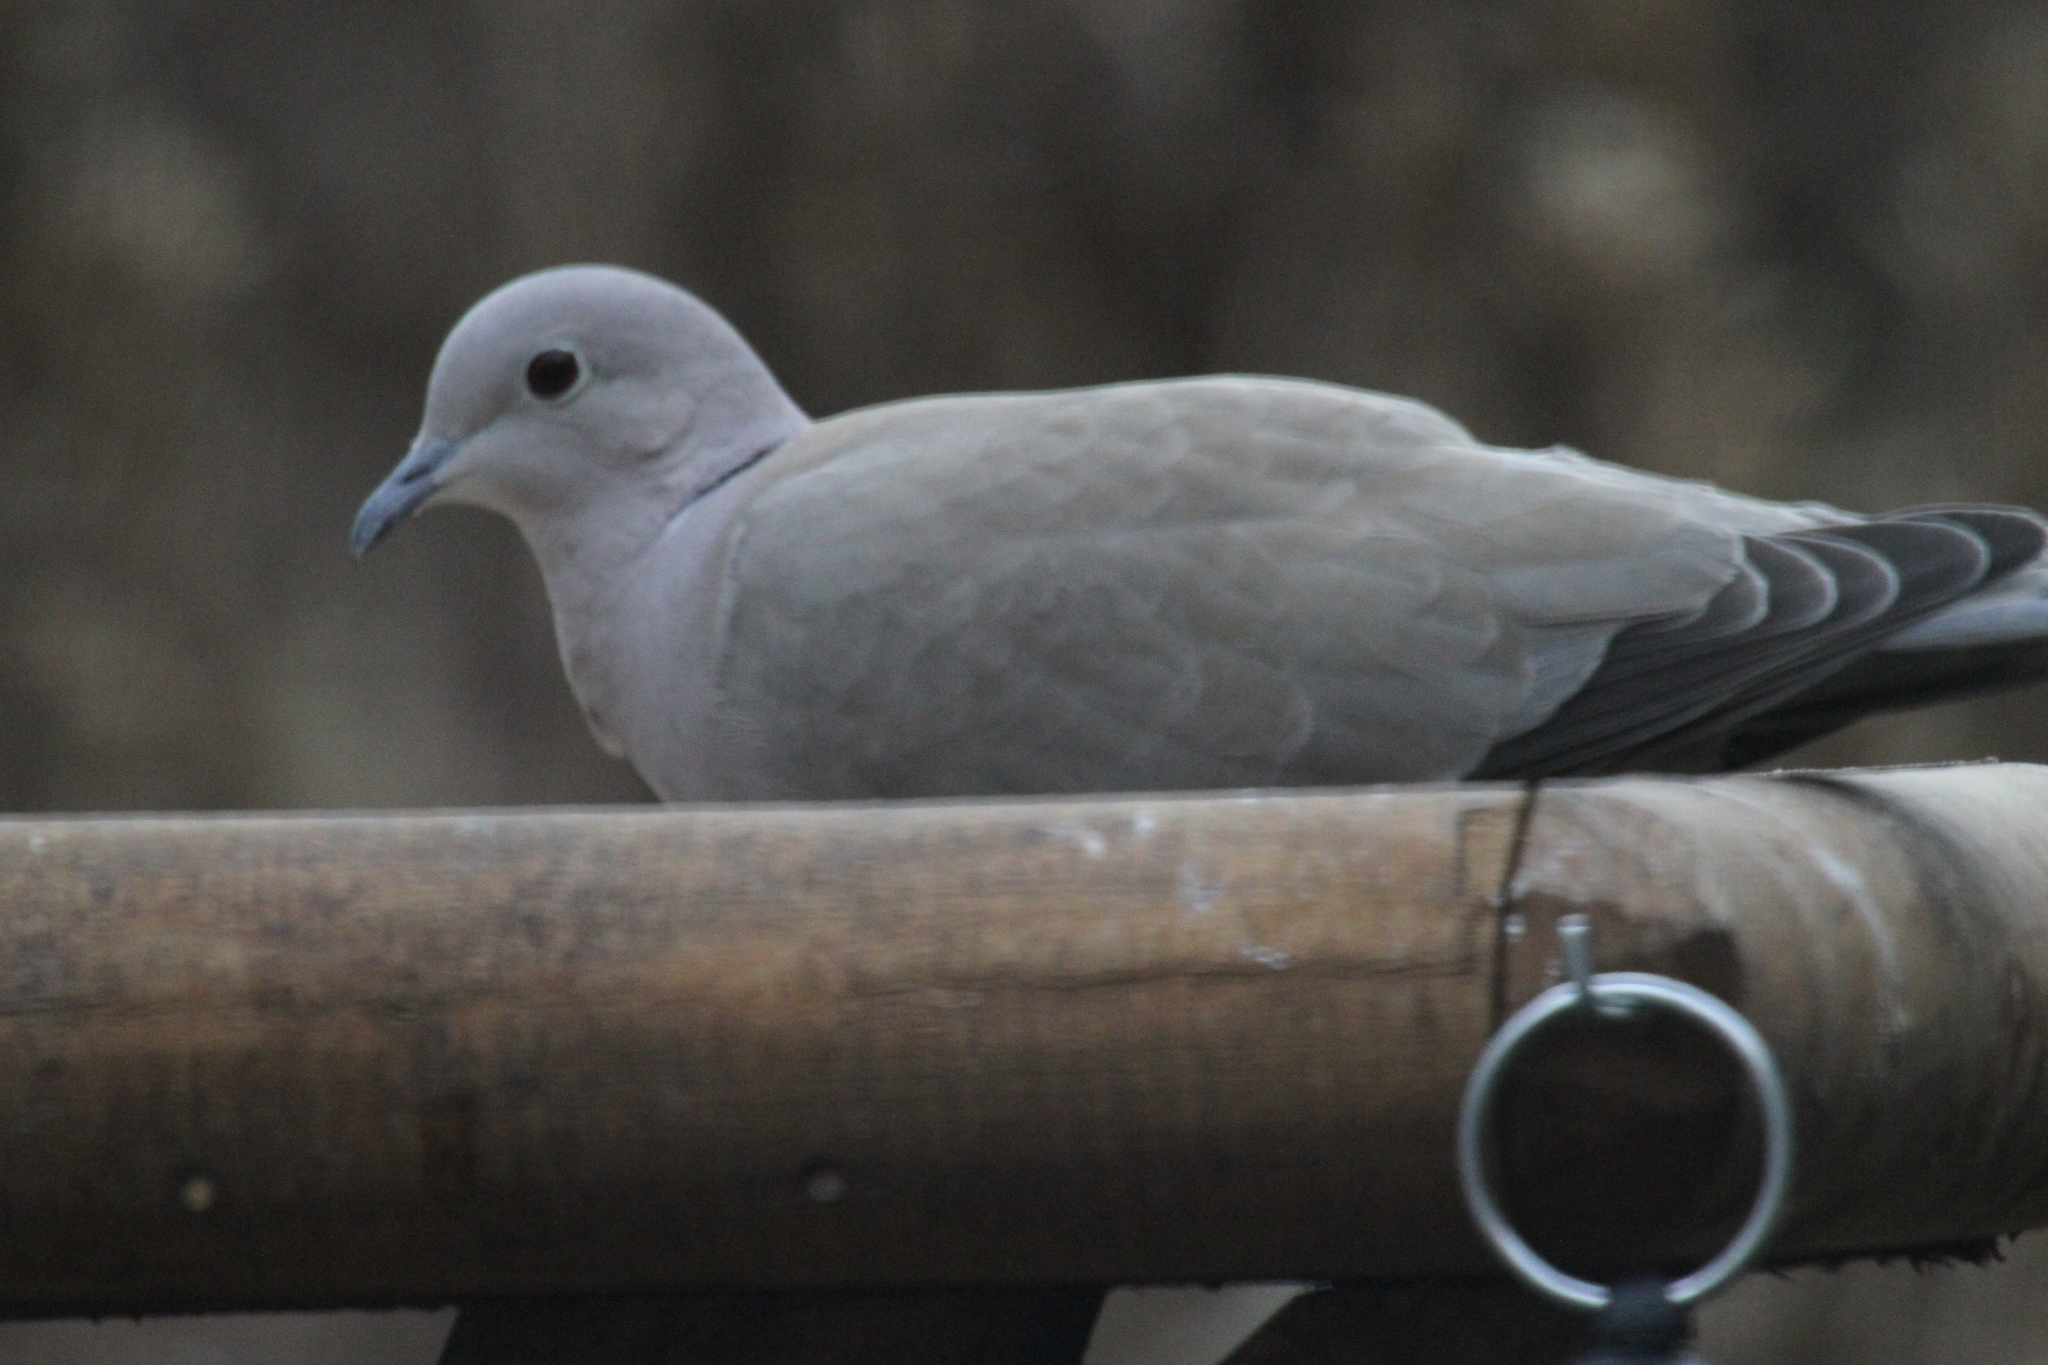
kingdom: Animalia
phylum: Chordata
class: Aves
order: Columbiformes
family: Columbidae
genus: Streptopelia
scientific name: Streptopelia decaocto
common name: Eurasian collared dove
